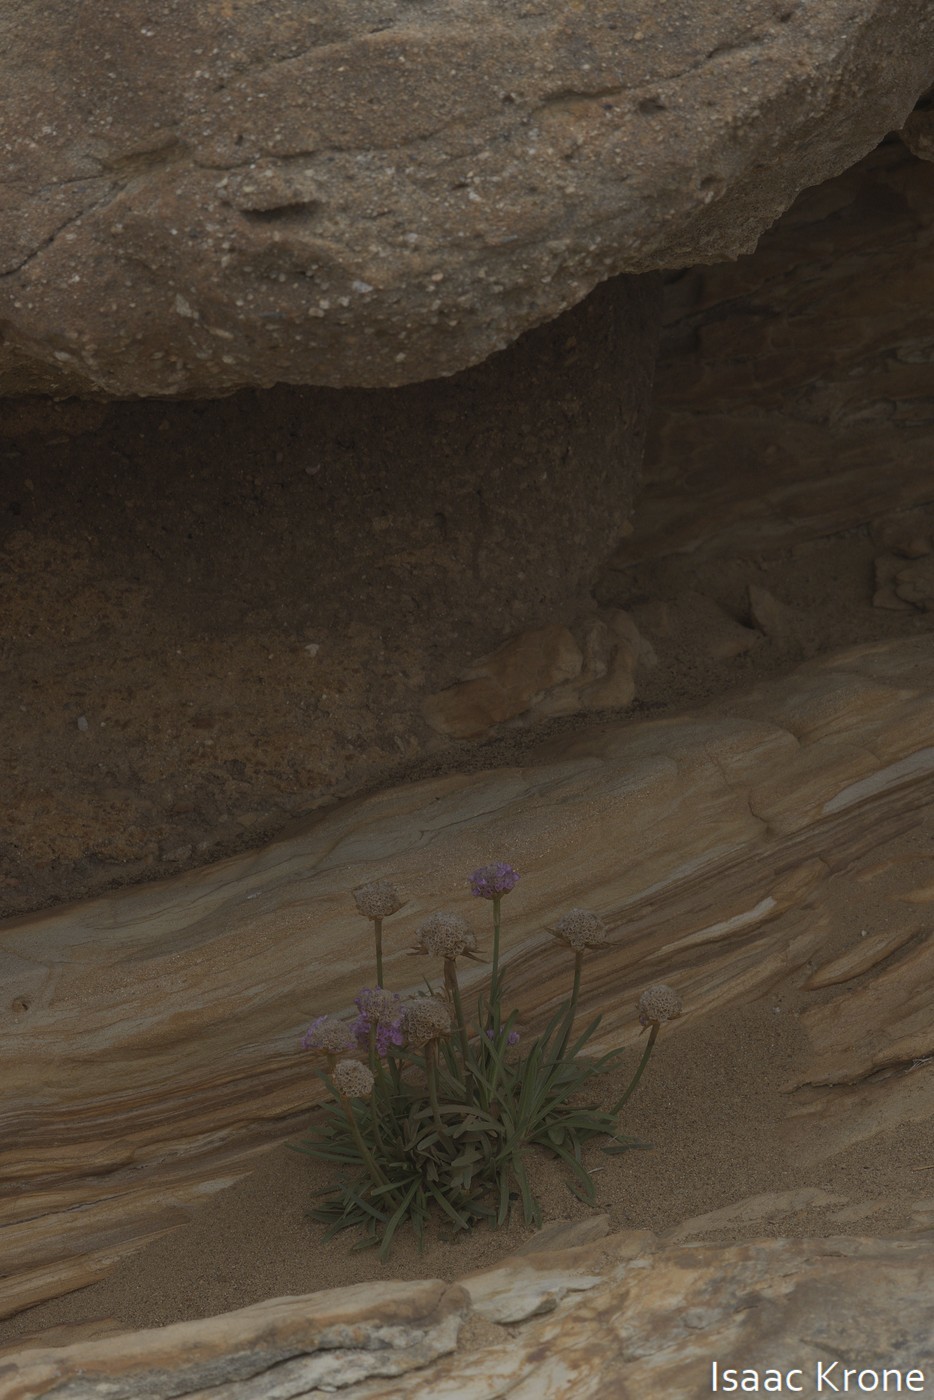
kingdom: Plantae
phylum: Tracheophyta
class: Magnoliopsida
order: Caryophyllales
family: Plumbaginaceae
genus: Armeria
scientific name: Armeria maritima
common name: Thrift
